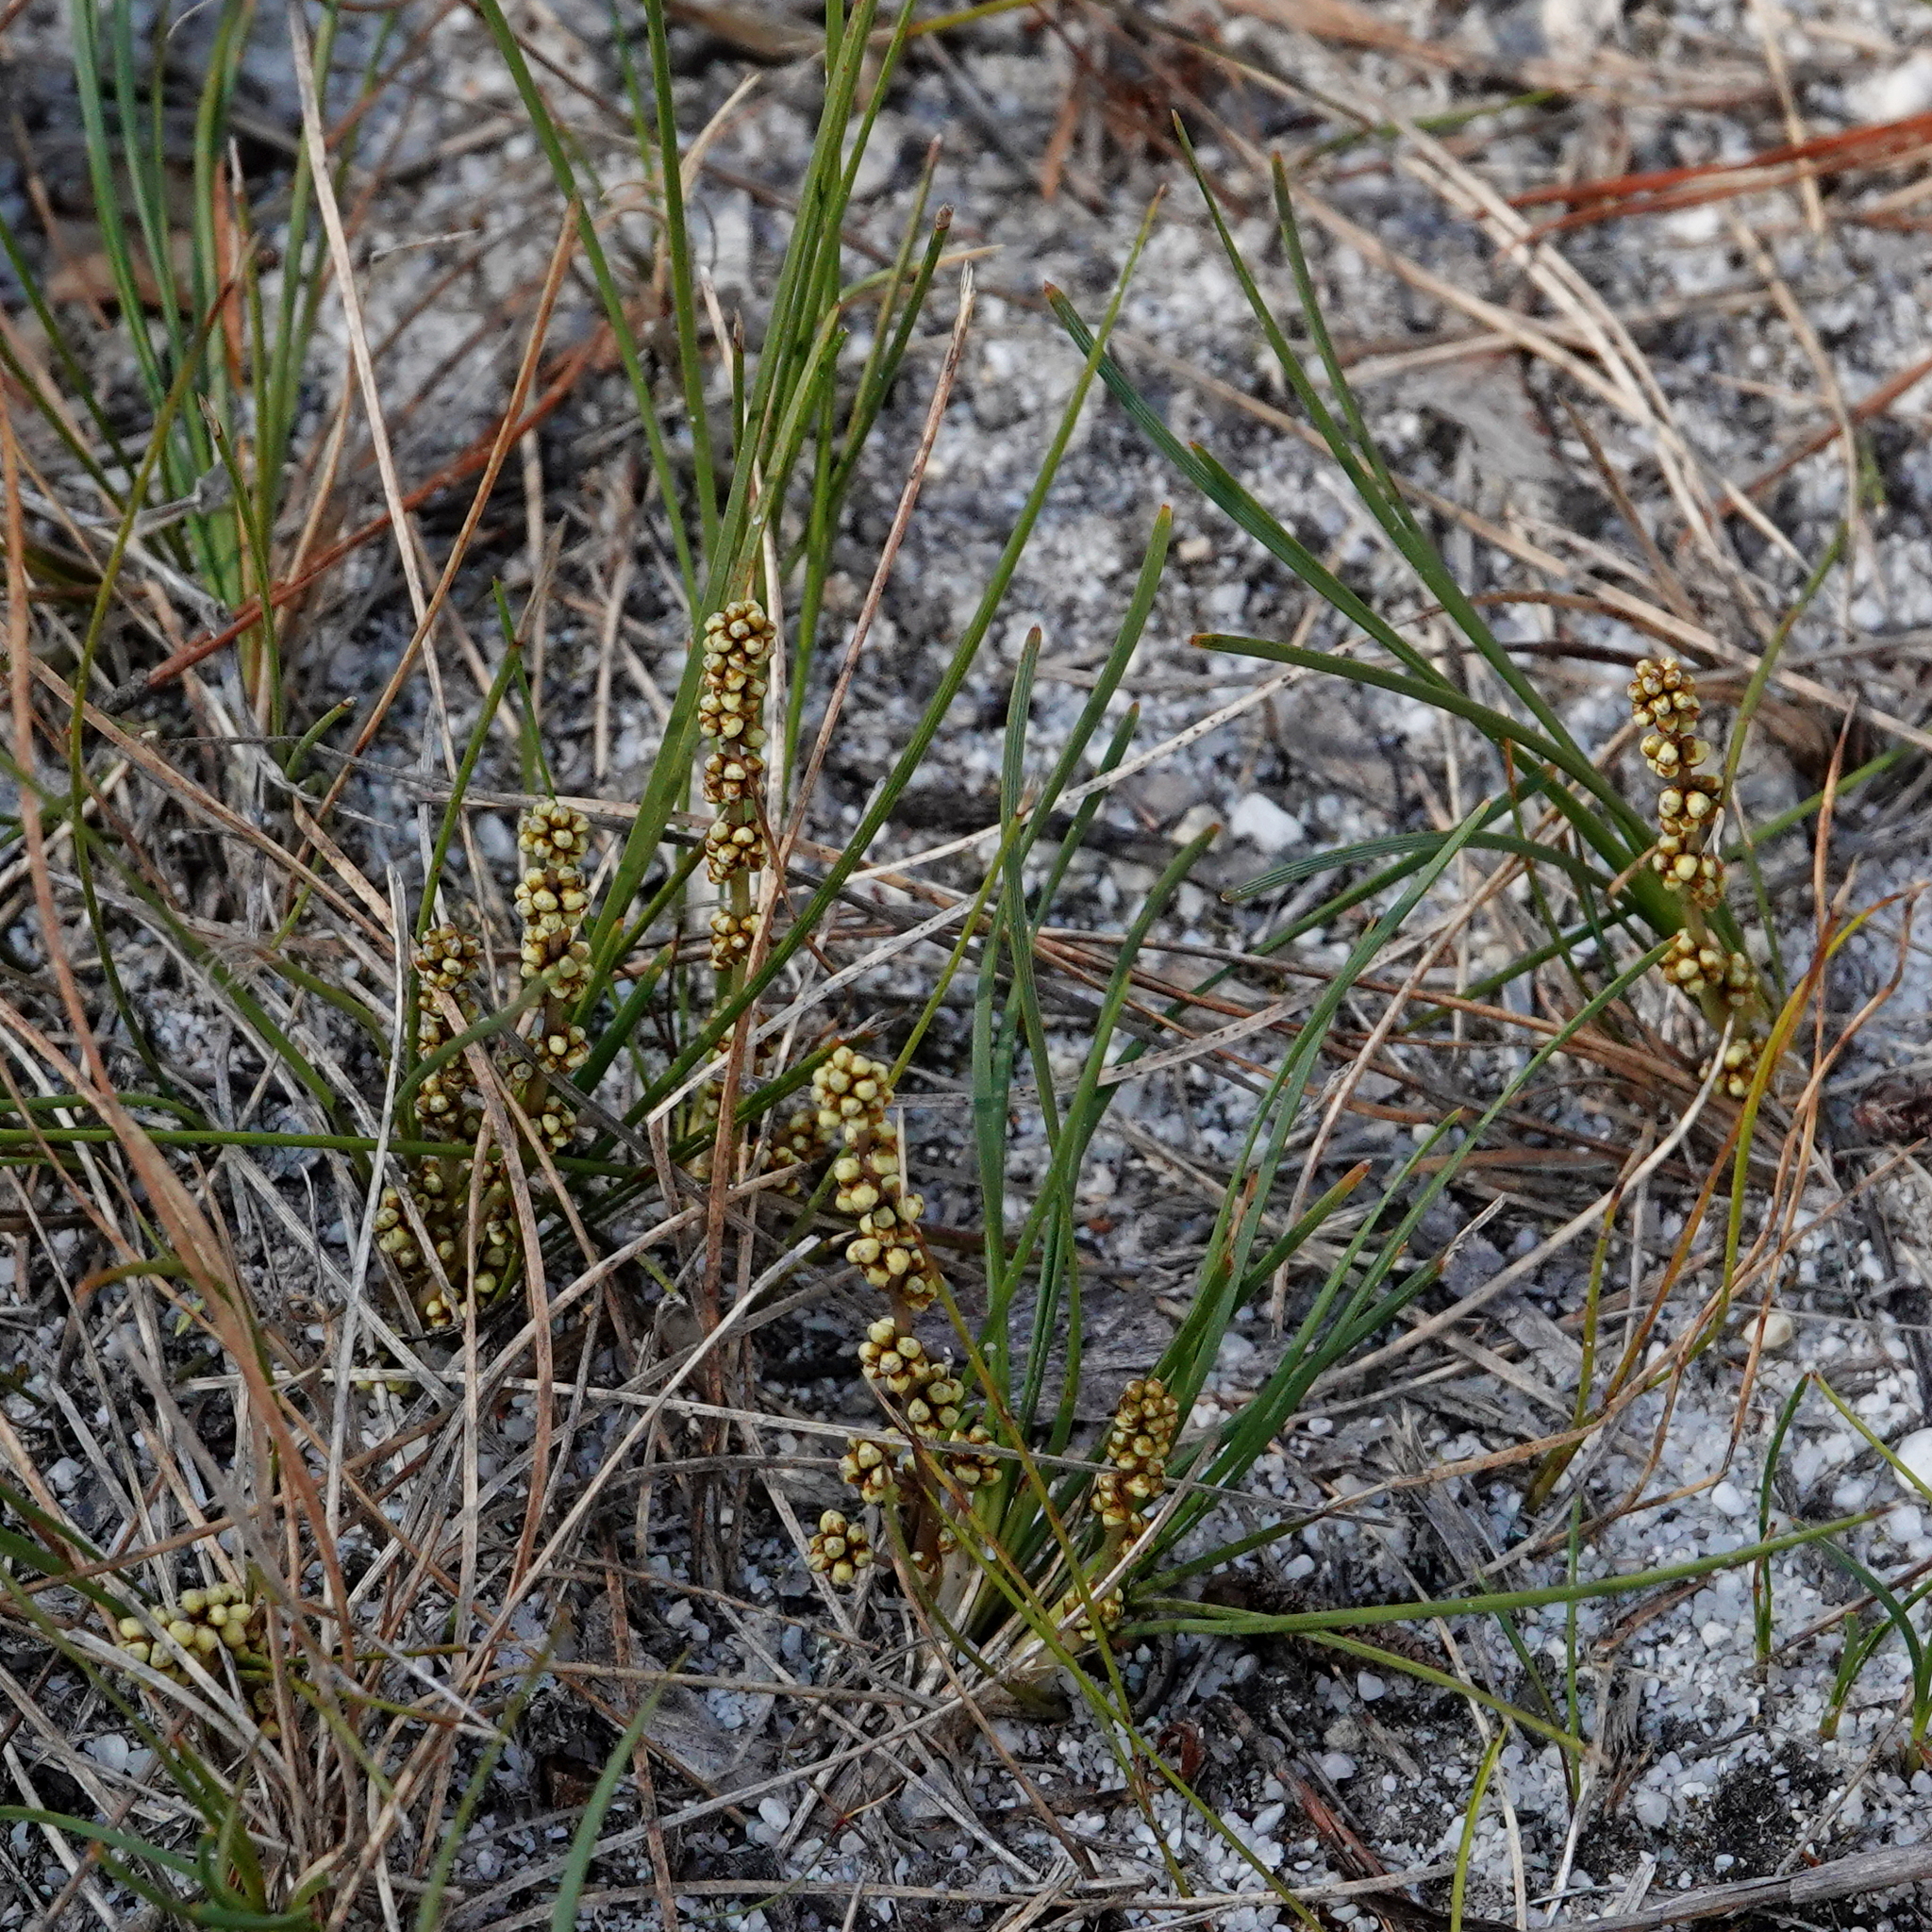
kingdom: Plantae
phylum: Tracheophyta
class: Liliopsida
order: Asparagales
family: Asparagaceae
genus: Lomandra
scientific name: Lomandra glauca
